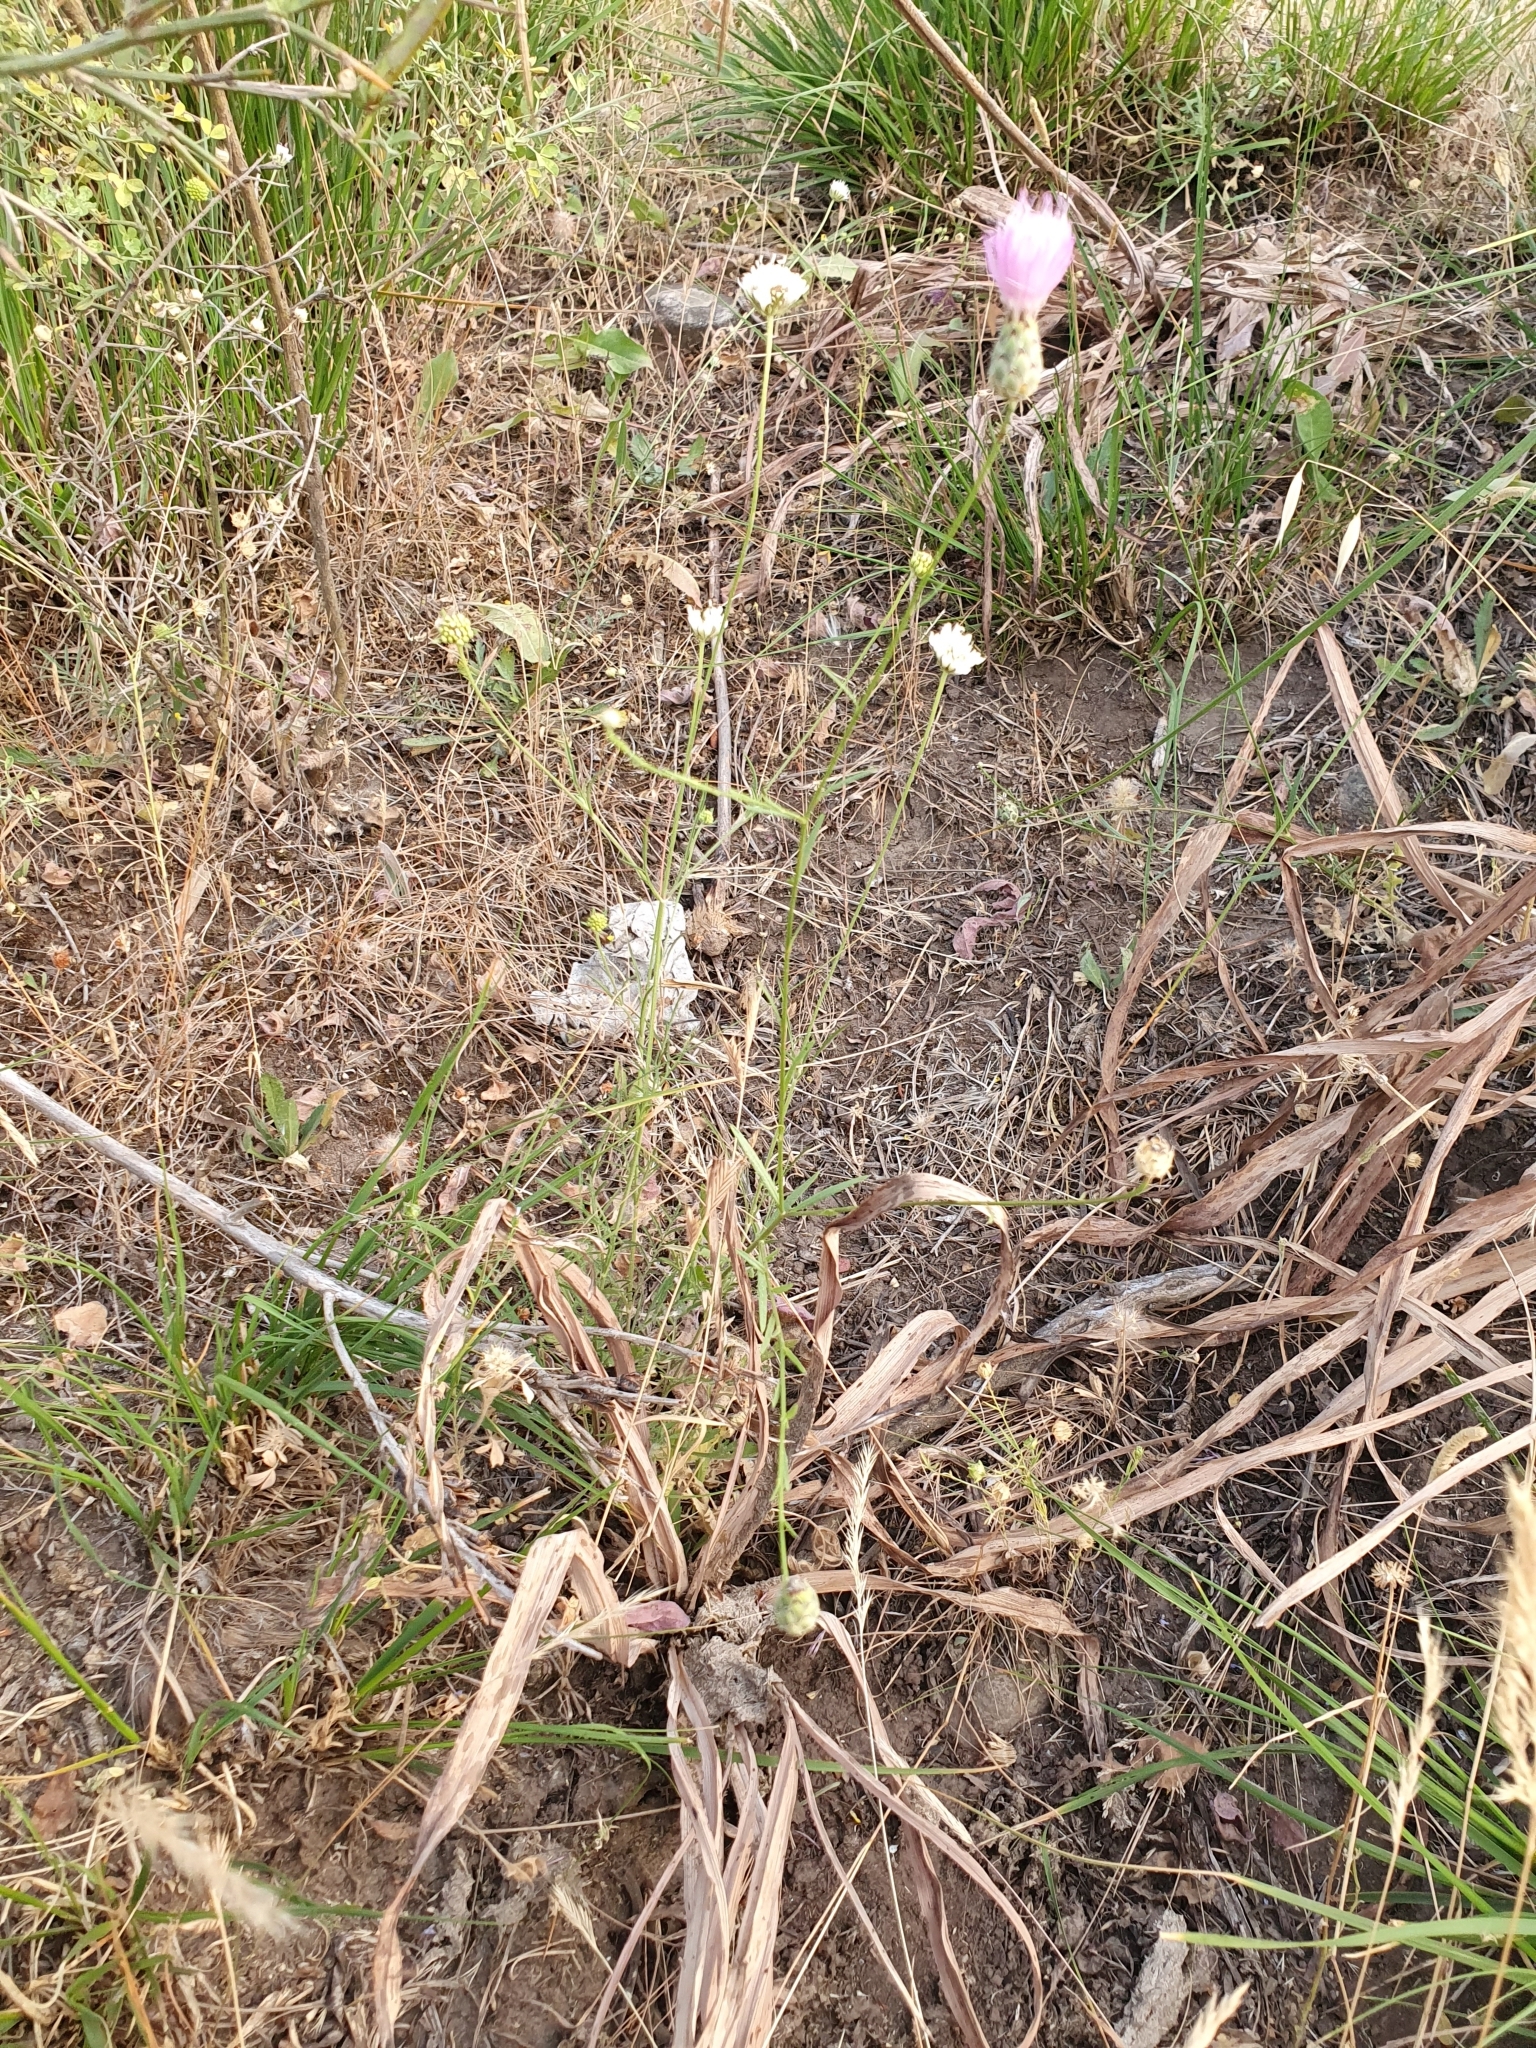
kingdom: Plantae
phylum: Tracheophyta
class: Magnoliopsida
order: Asterales
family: Asteraceae
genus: Mantisalca
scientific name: Mantisalca salmantica
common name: Dagger flower
